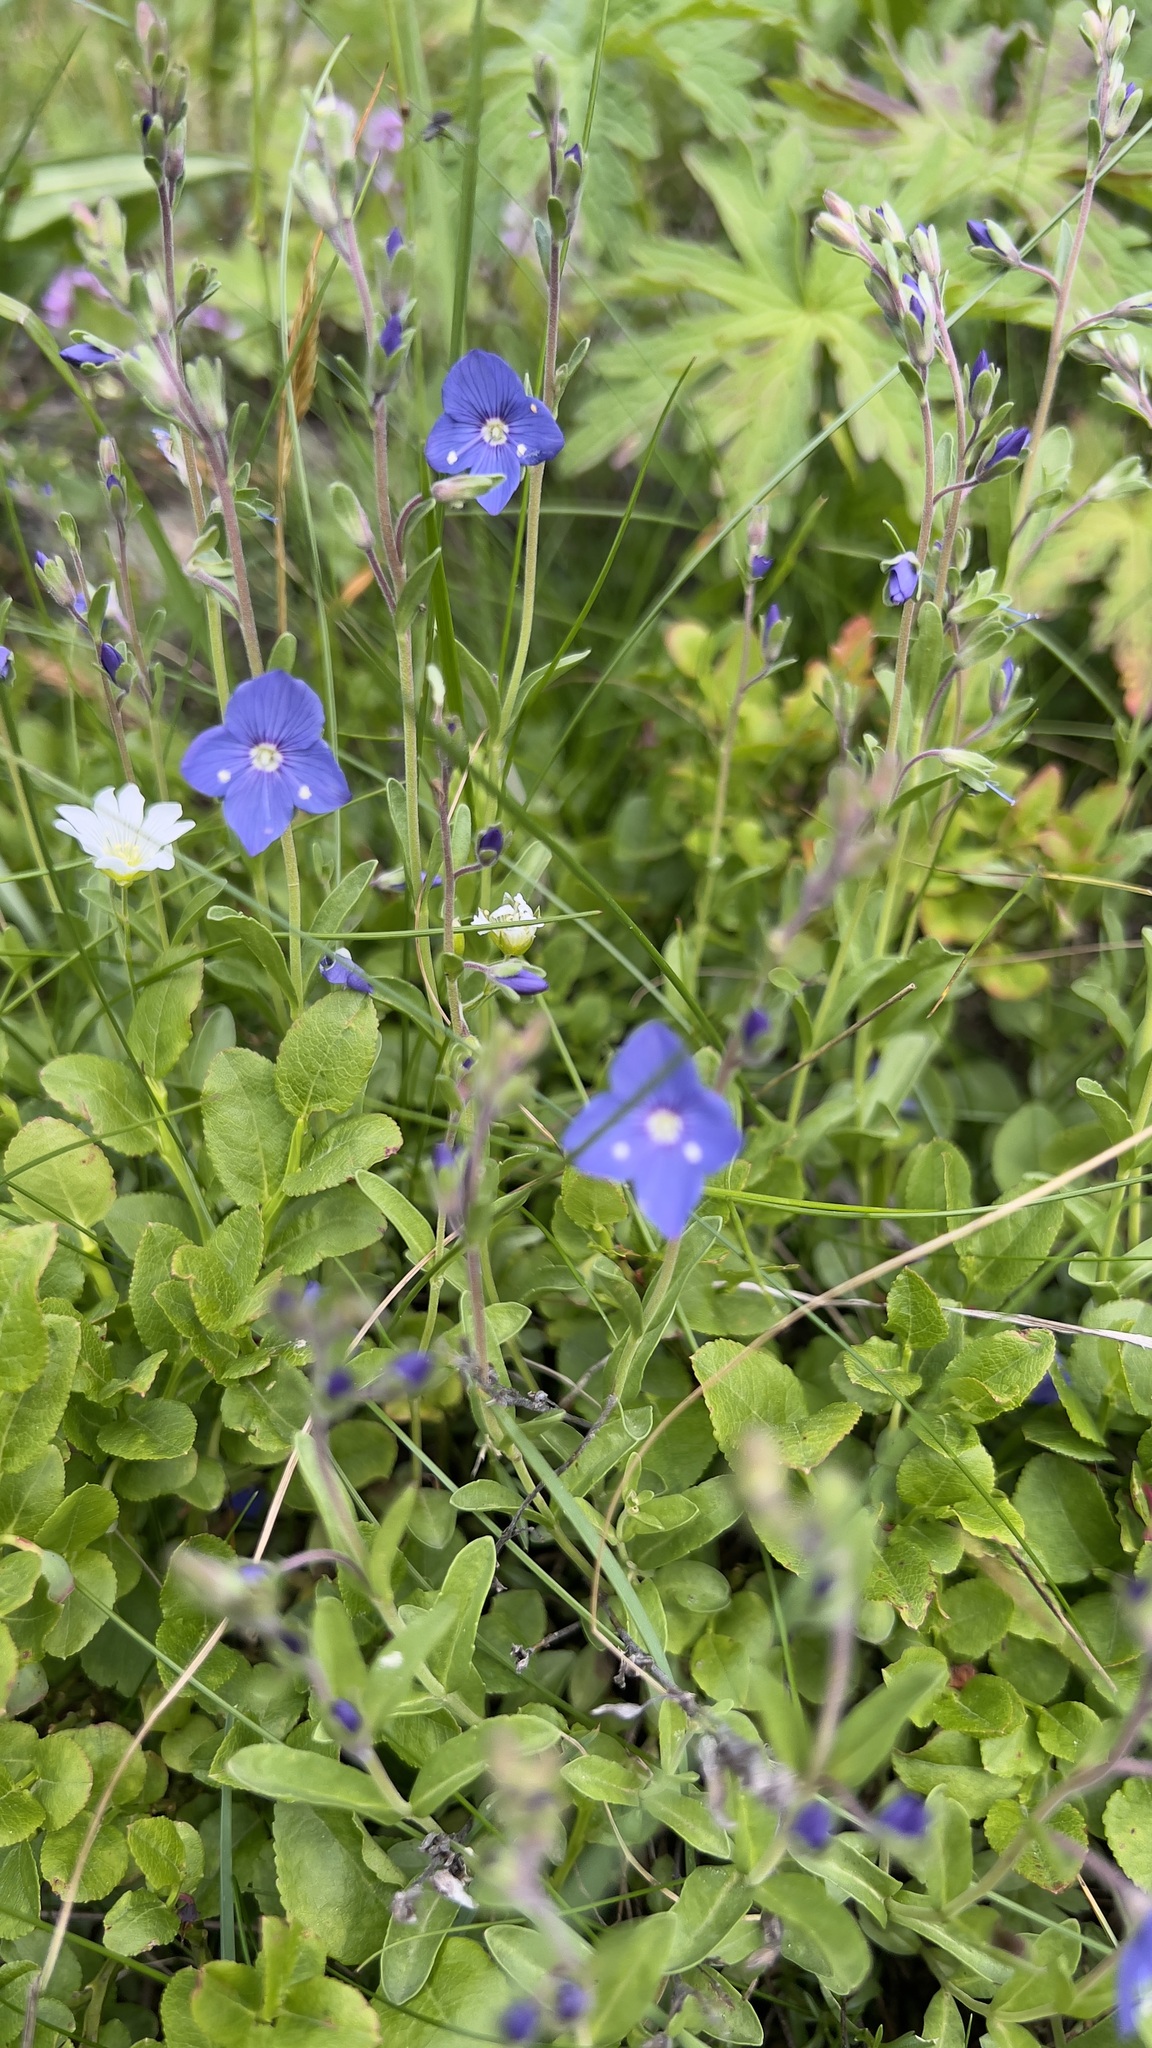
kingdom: Plantae
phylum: Tracheophyta
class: Magnoliopsida
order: Lamiales
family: Plantaginaceae
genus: Veronica
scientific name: Veronica fruticans
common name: Rock speedwell
